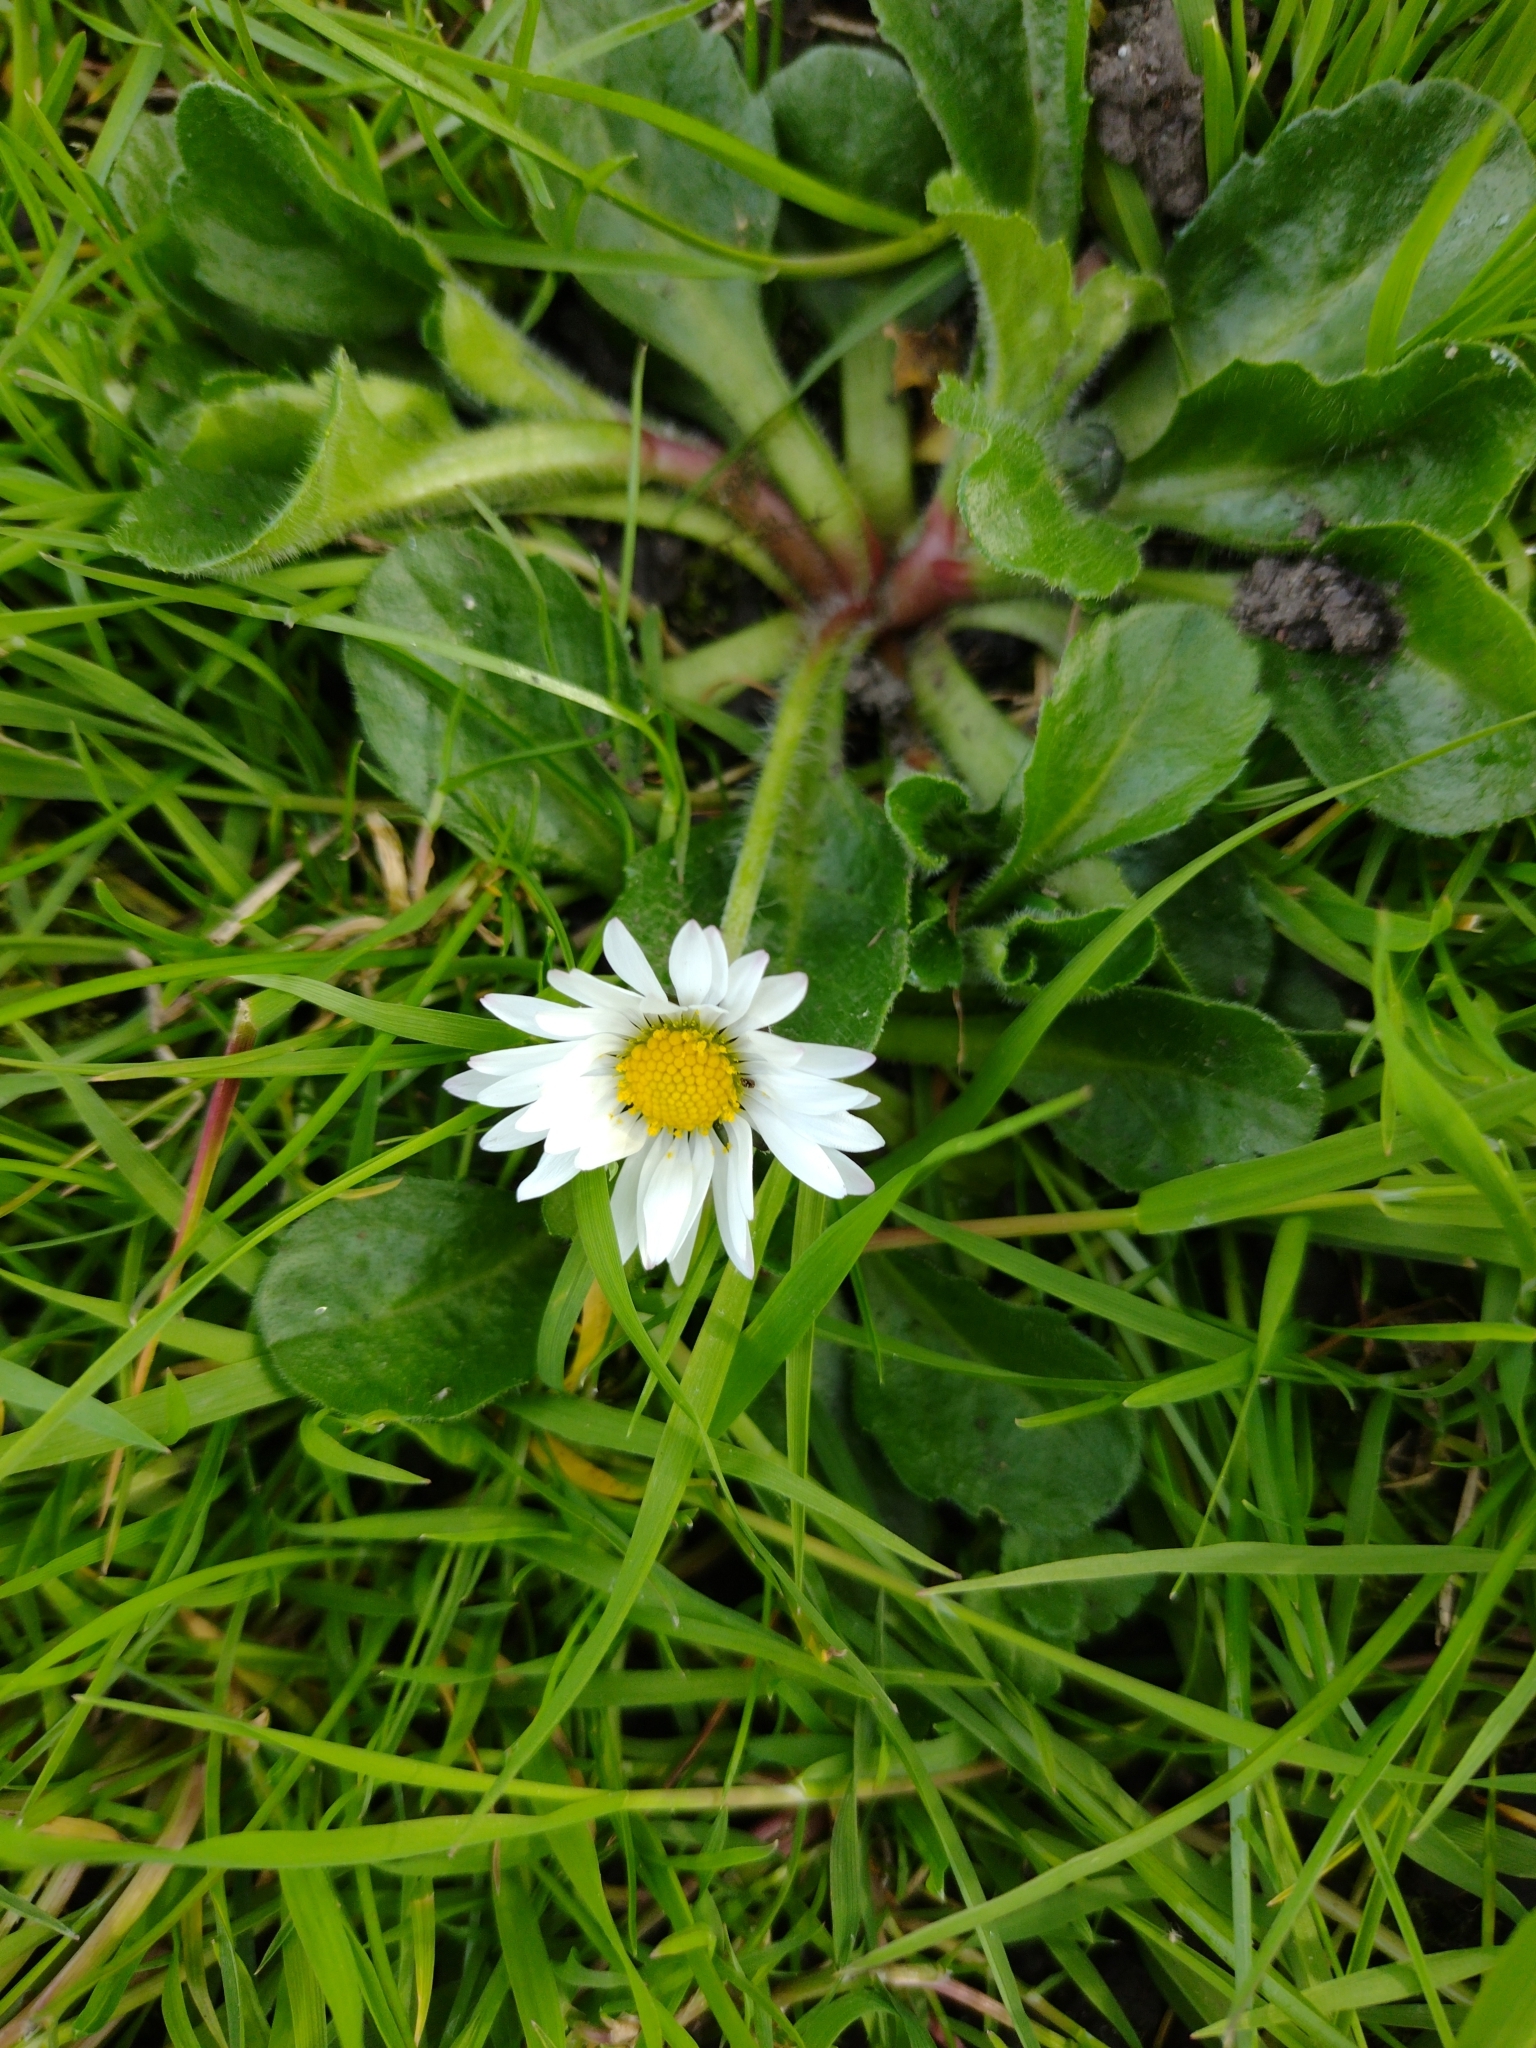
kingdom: Plantae
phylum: Tracheophyta
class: Magnoliopsida
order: Asterales
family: Asteraceae
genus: Bellis
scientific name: Bellis perennis
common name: Lawndaisy
